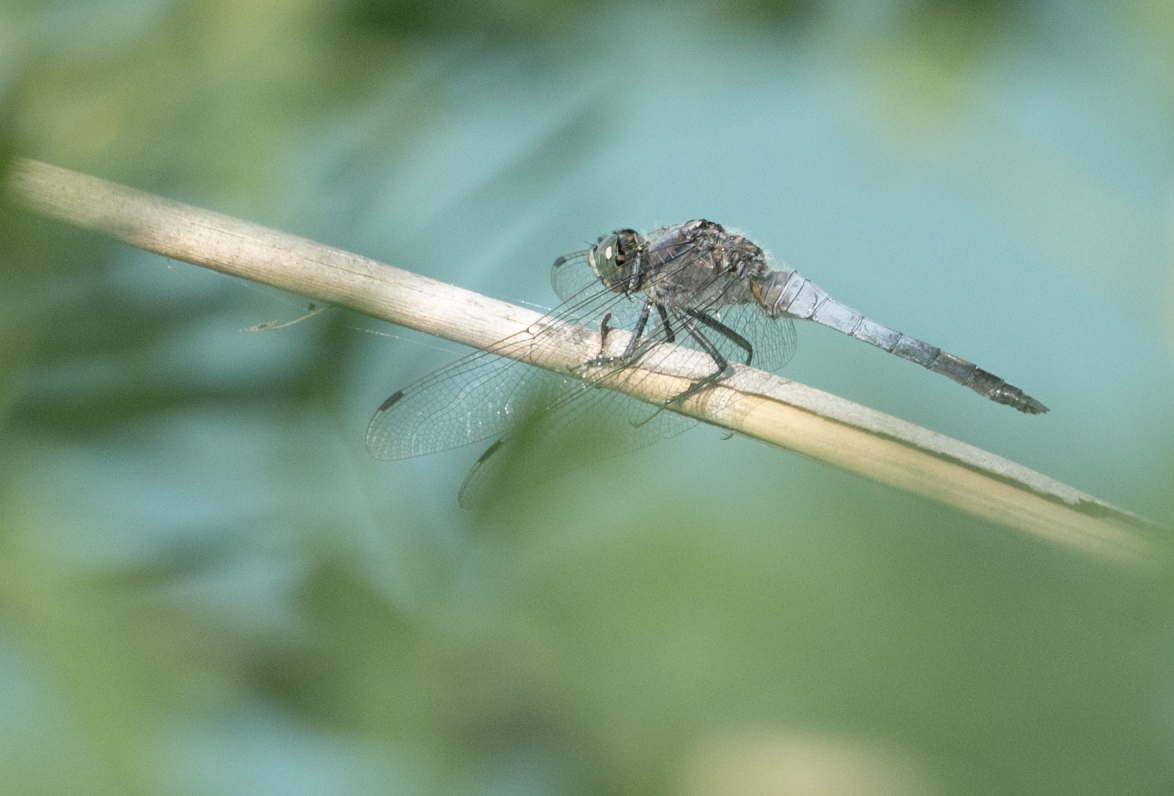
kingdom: Animalia
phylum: Arthropoda
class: Insecta
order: Odonata
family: Libellulidae
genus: Orthetrum
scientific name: Orthetrum cancellatum
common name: Black-tailed skimmer
